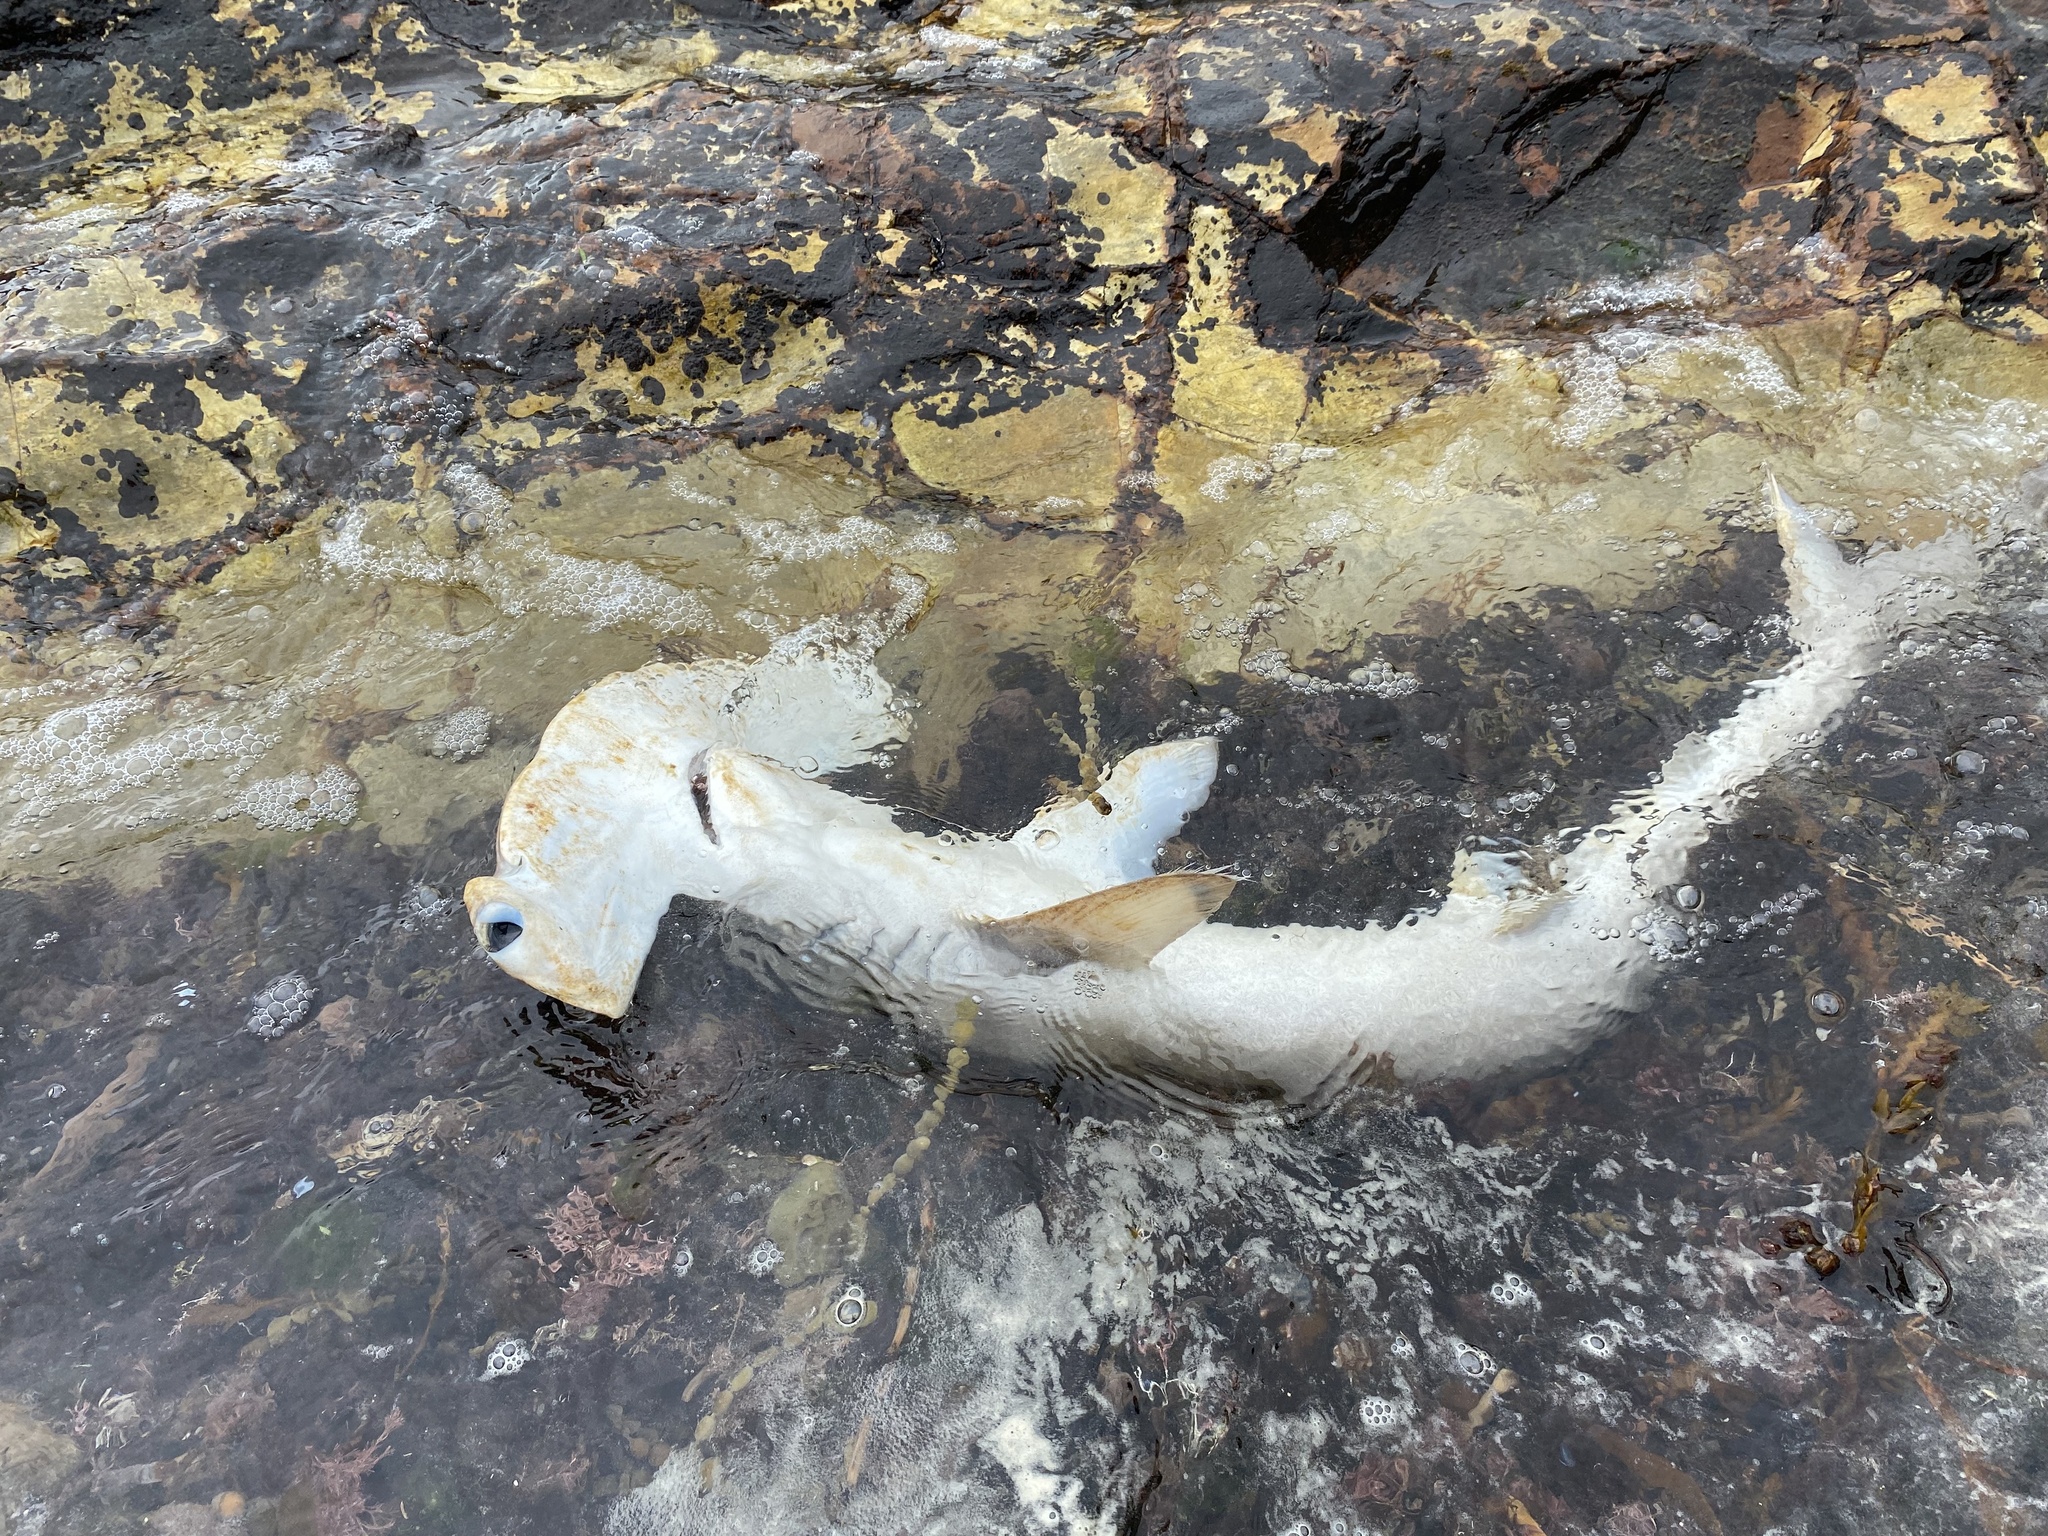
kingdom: Animalia
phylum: Chordata
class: Elasmobranchii
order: Carcharhiniformes
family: Sphyrnidae
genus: Sphyrna
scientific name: Sphyrna zygaena
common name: Smooth hammerhead
